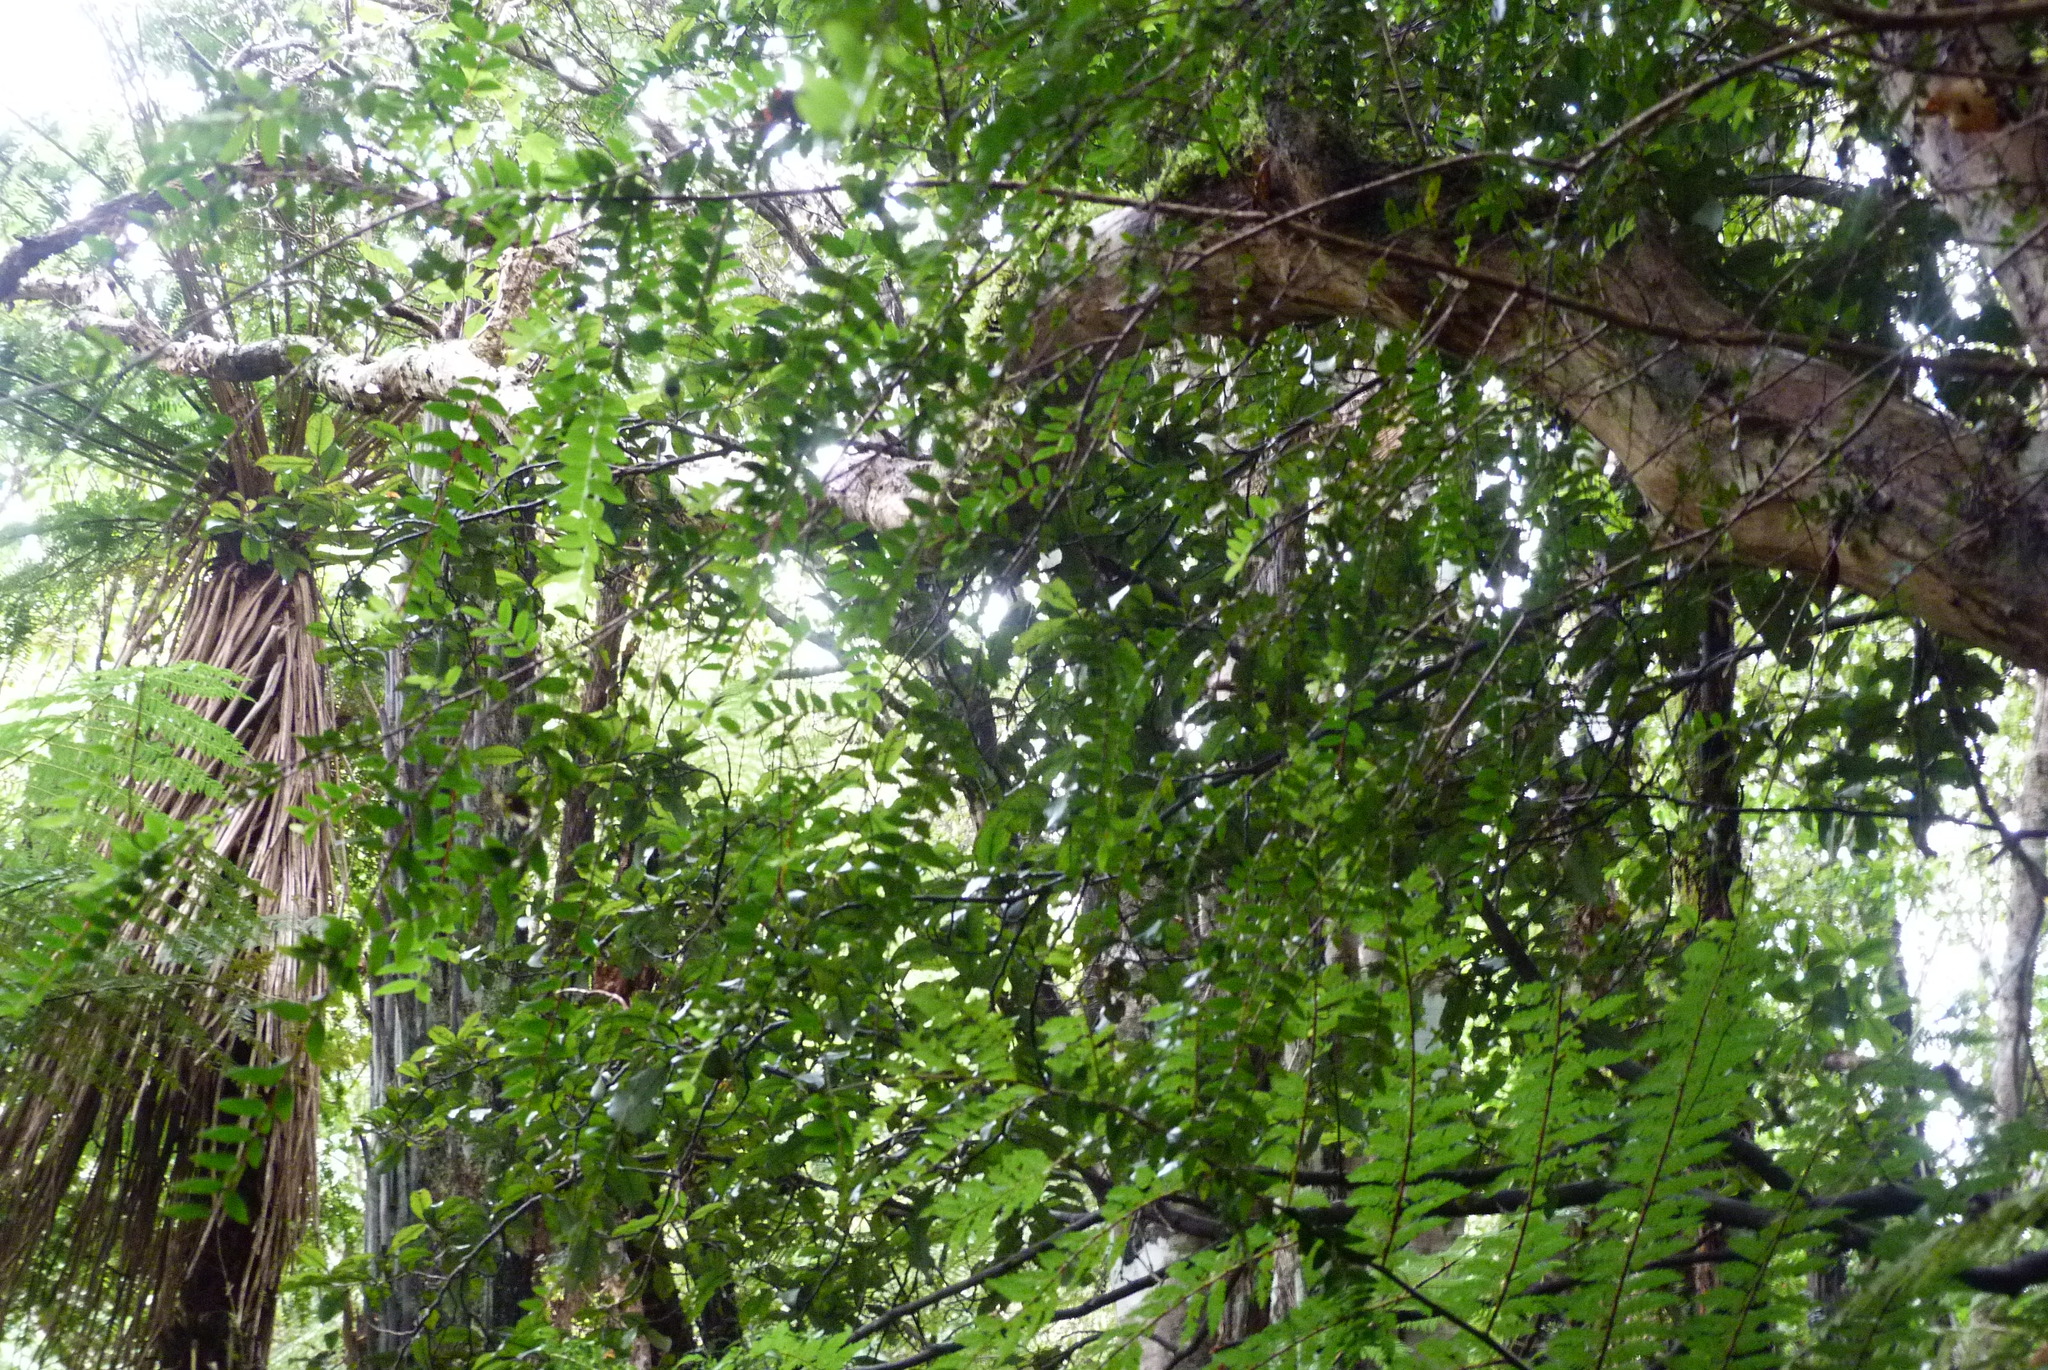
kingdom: Plantae
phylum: Tracheophyta
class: Magnoliopsida
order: Myrtales
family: Myrtaceae
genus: Metrosideros
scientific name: Metrosideros diffusa
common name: Small ratavine
